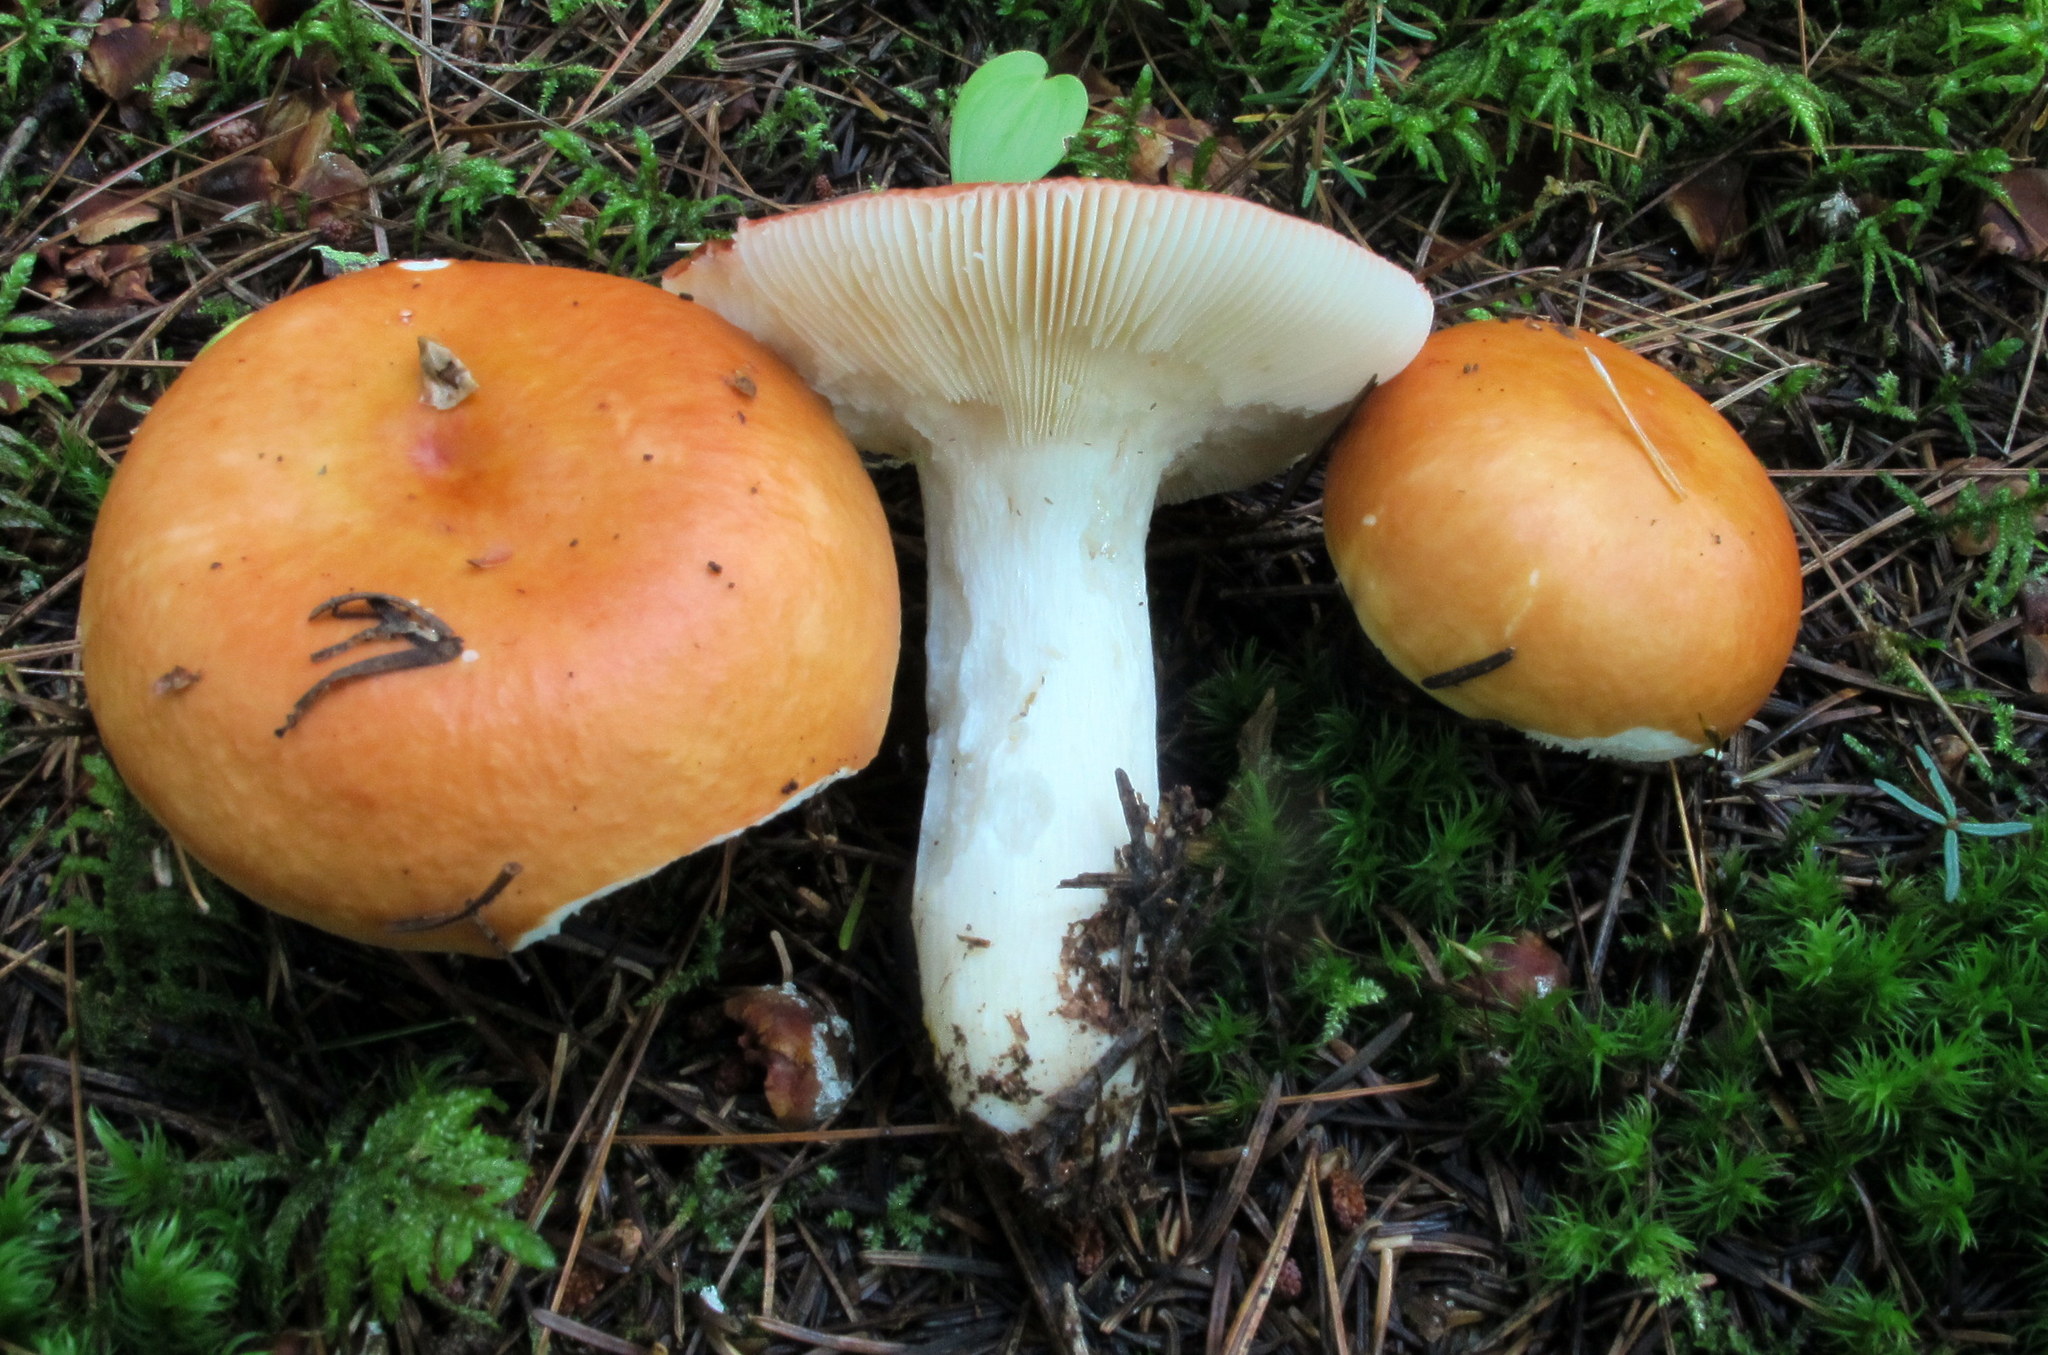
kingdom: Fungi
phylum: Basidiomycota
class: Agaricomycetes
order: Russulales
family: Russulaceae
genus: Russula
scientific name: Russula paludosa
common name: Hintapink
